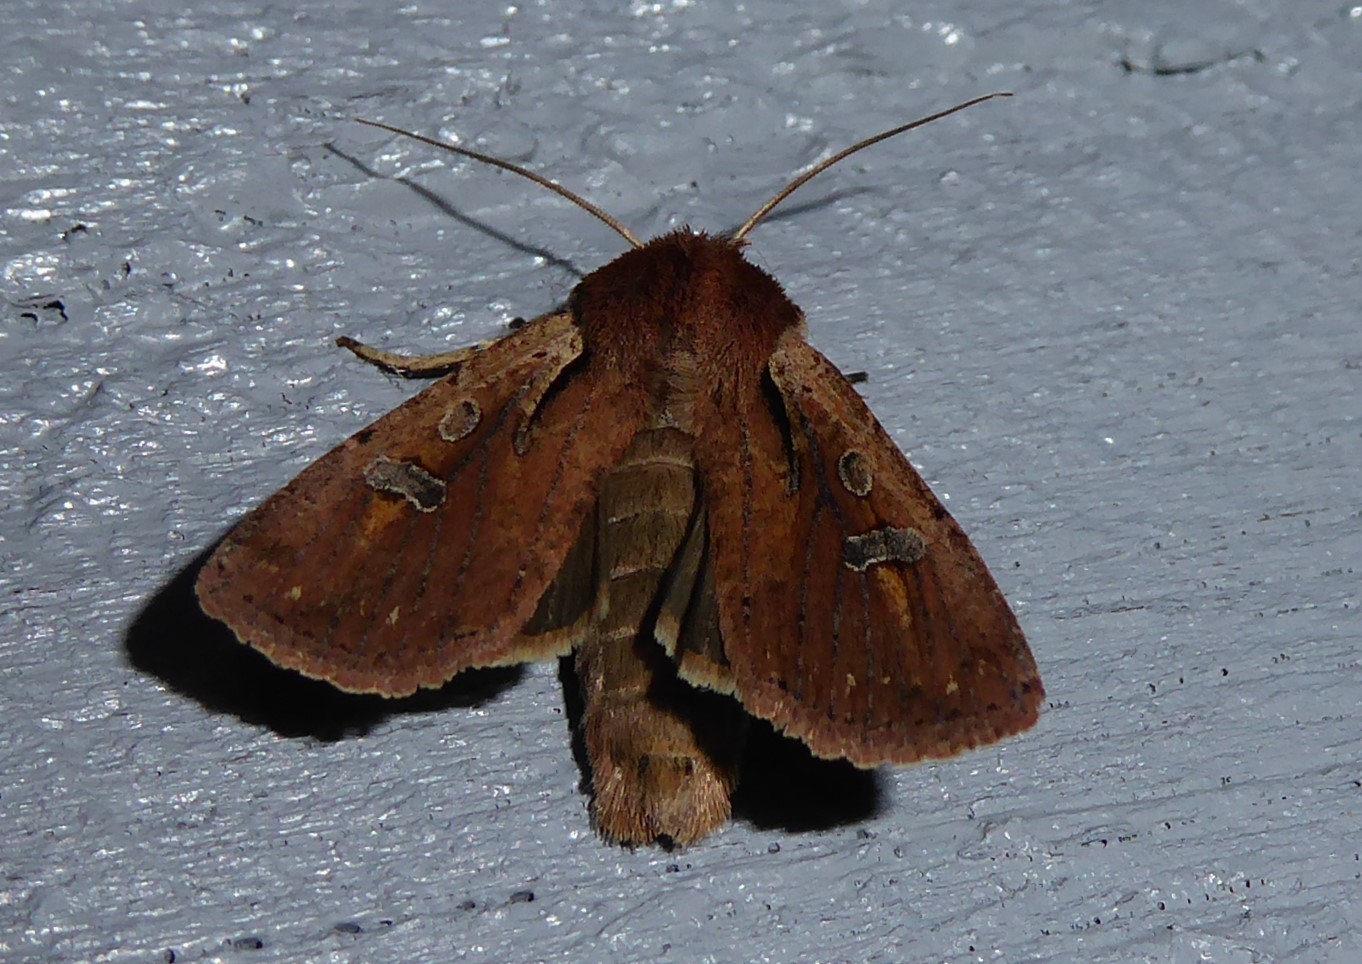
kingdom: Animalia
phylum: Arthropoda
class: Insecta
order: Lepidoptera
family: Noctuidae
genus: Ichneutica
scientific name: Ichneutica atristriga
